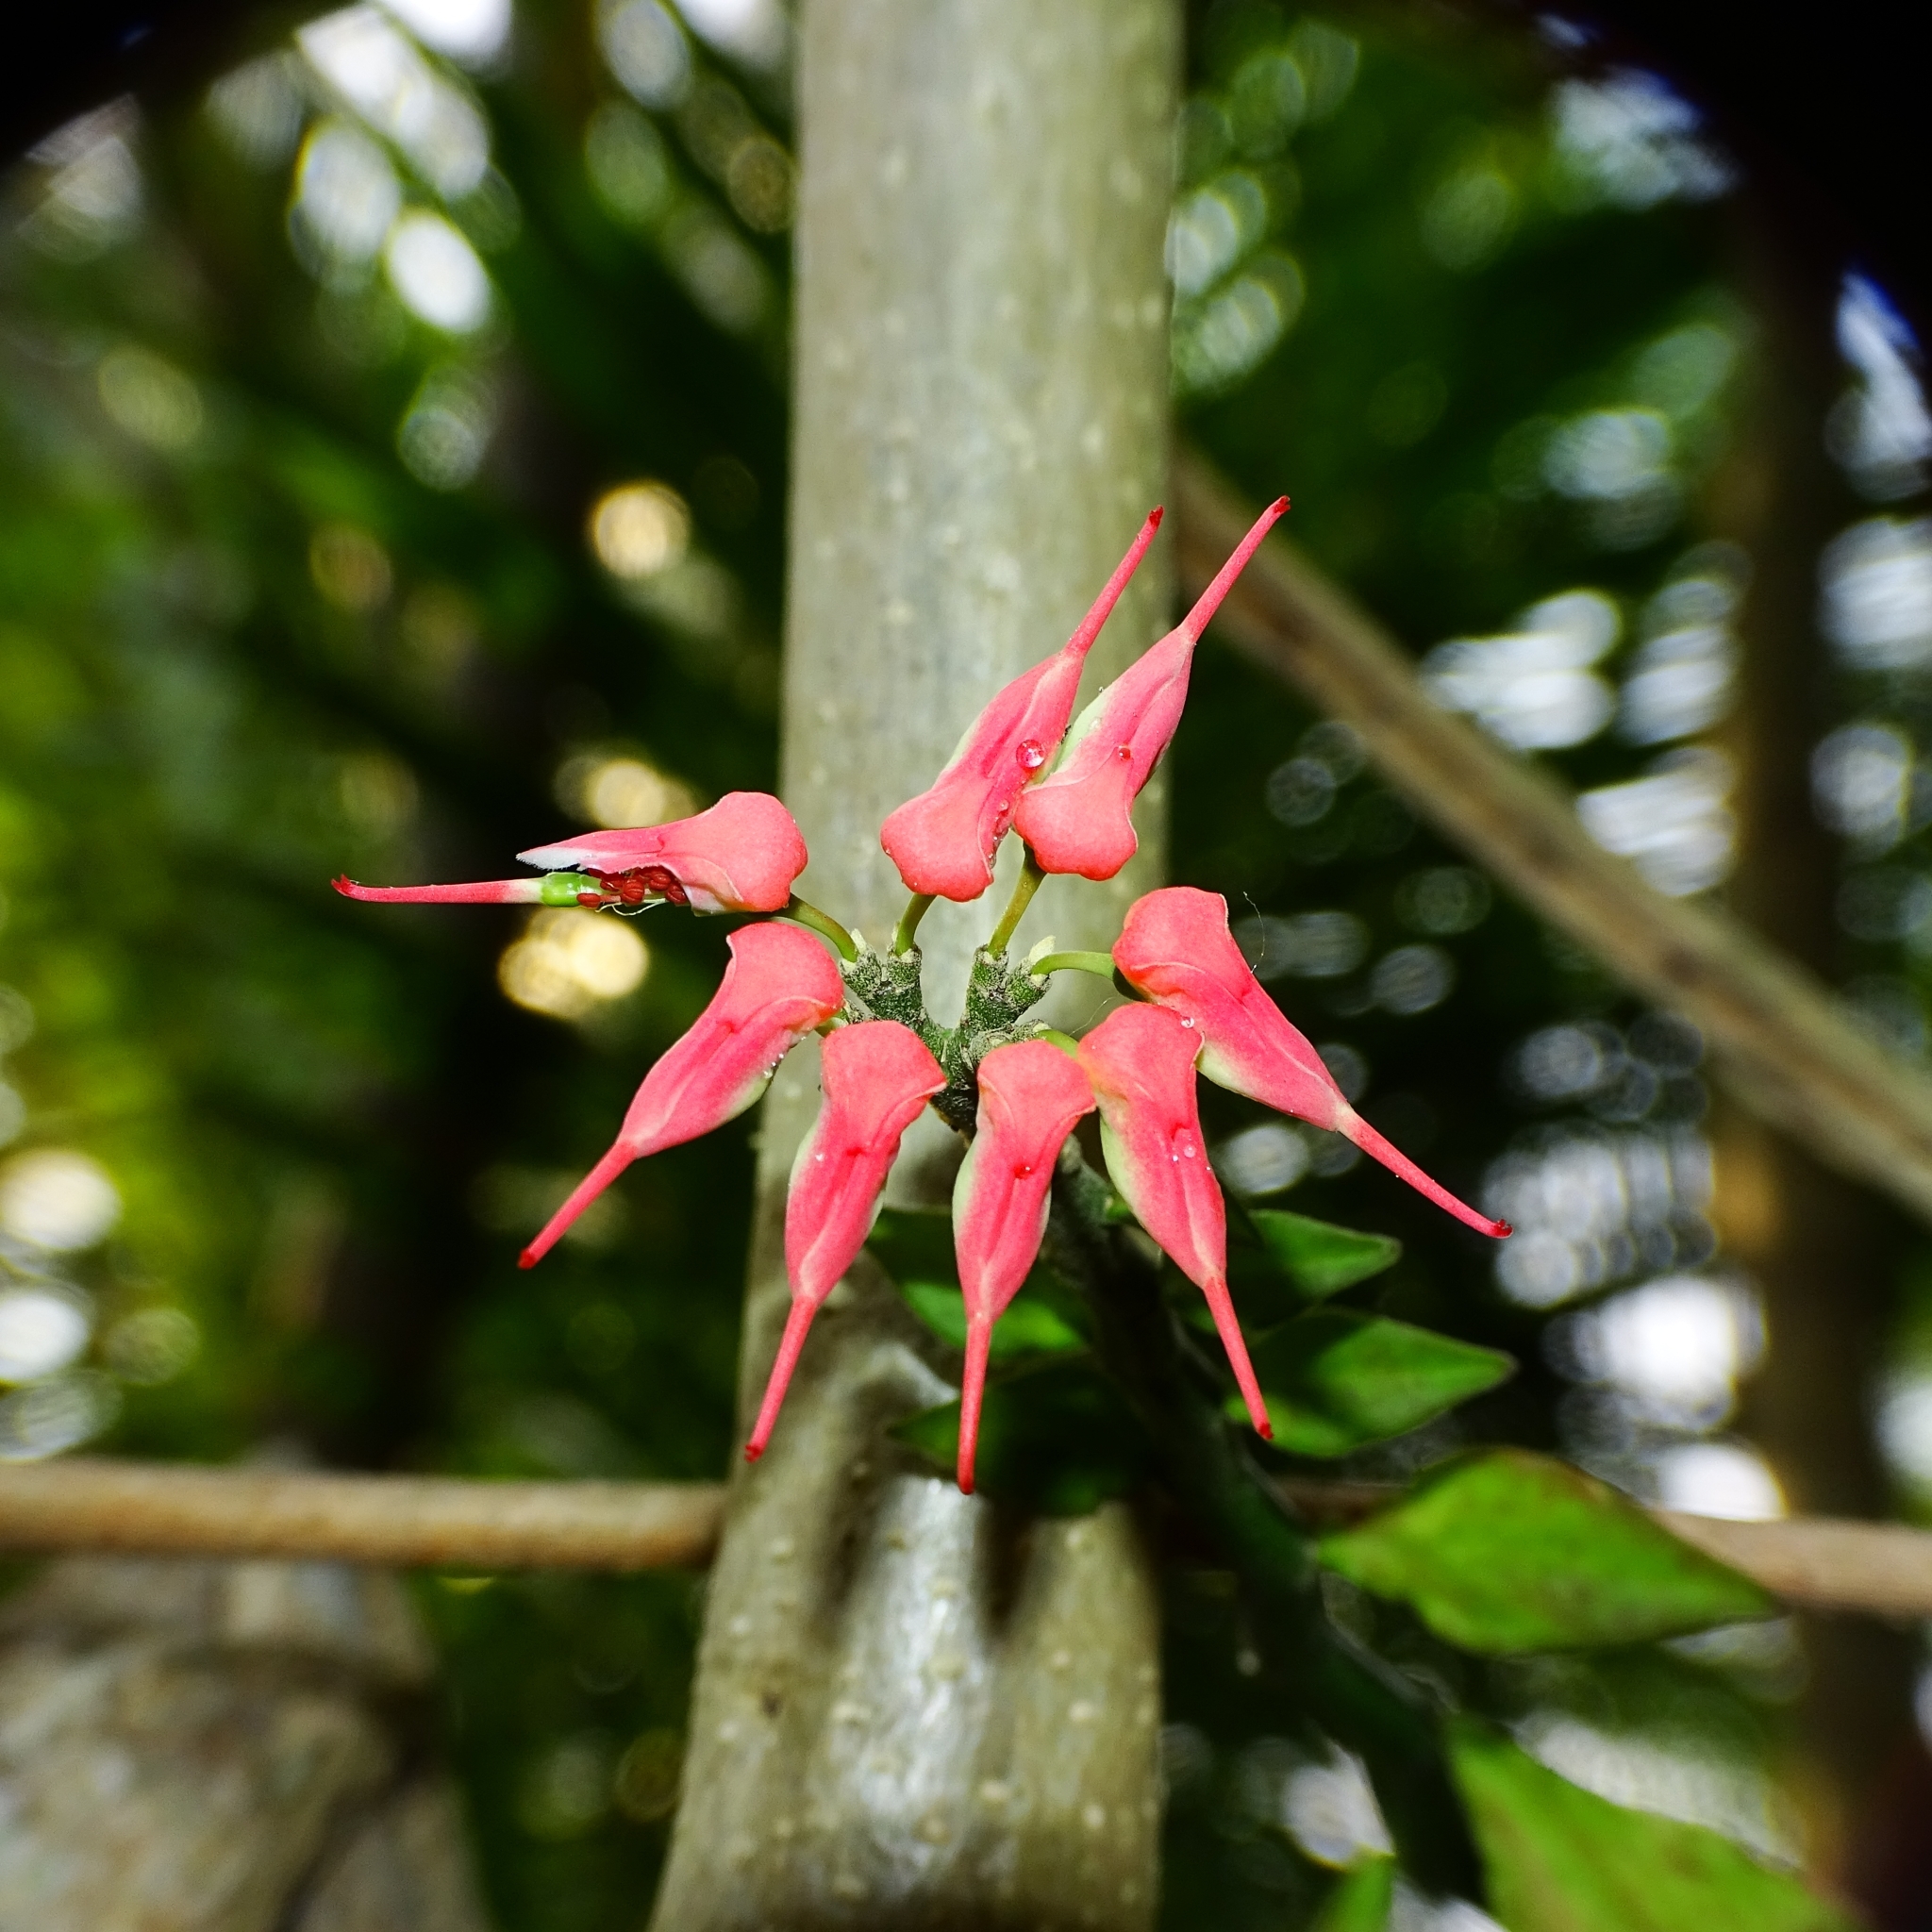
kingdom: Plantae
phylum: Tracheophyta
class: Magnoliopsida
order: Malpighiales
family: Euphorbiaceae
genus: Euphorbia
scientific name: Euphorbia tithymaloides
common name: Slipperplant
